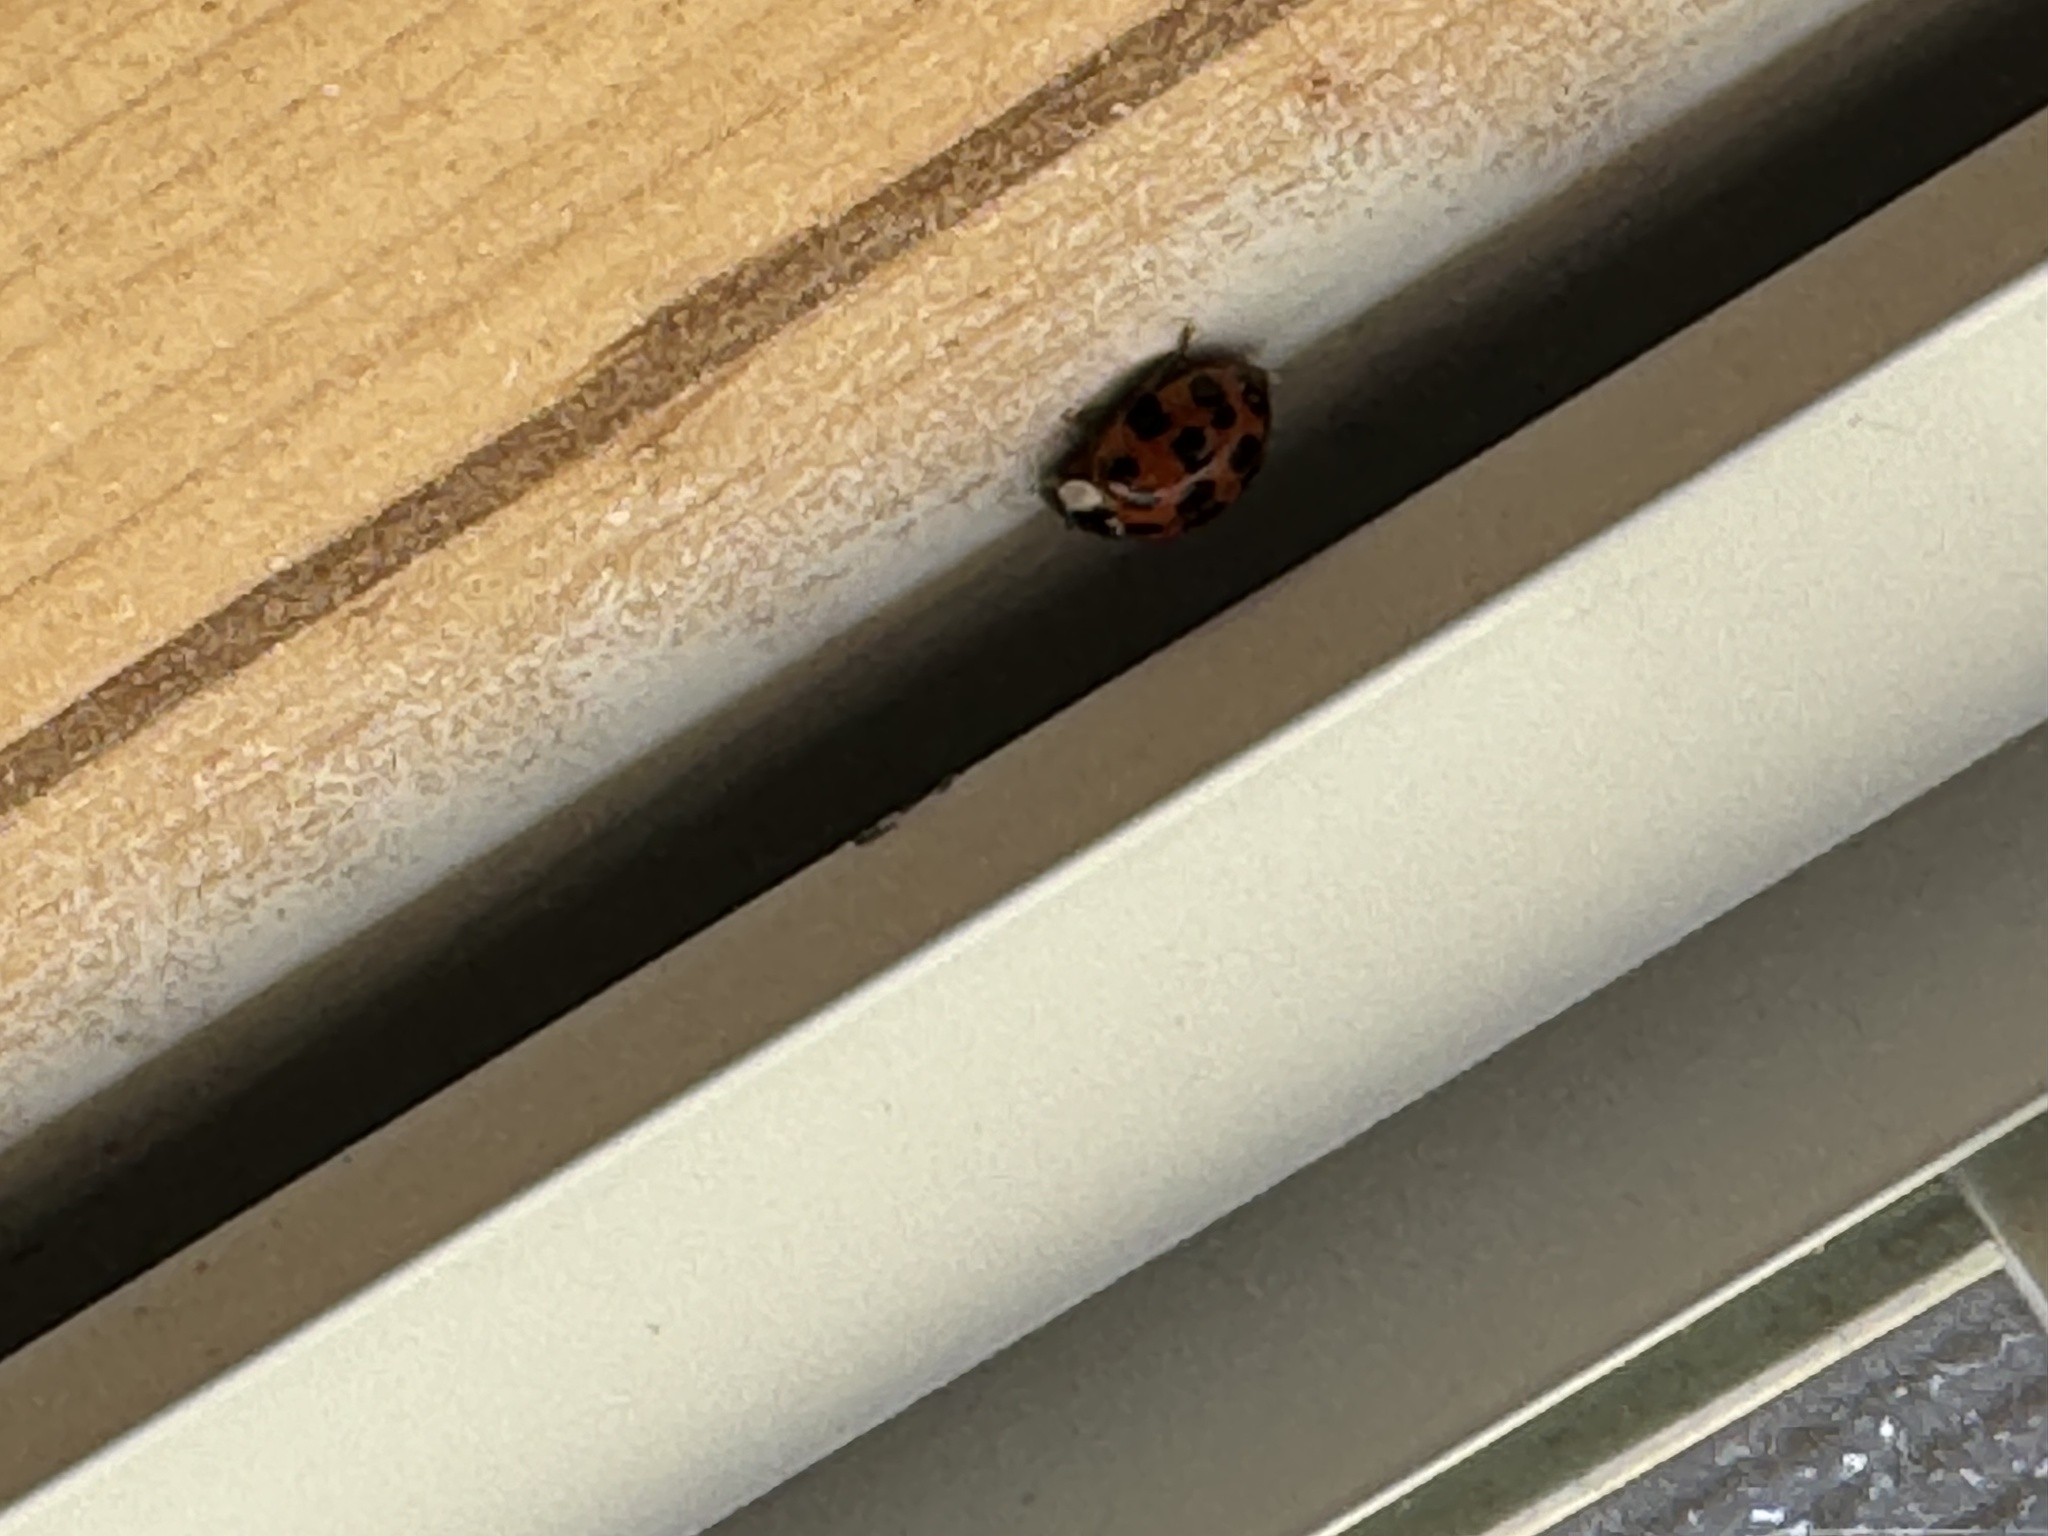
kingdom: Animalia
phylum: Arthropoda
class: Insecta
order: Coleoptera
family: Coccinellidae
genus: Harmonia
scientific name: Harmonia axyridis
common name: Harlequin ladybird
